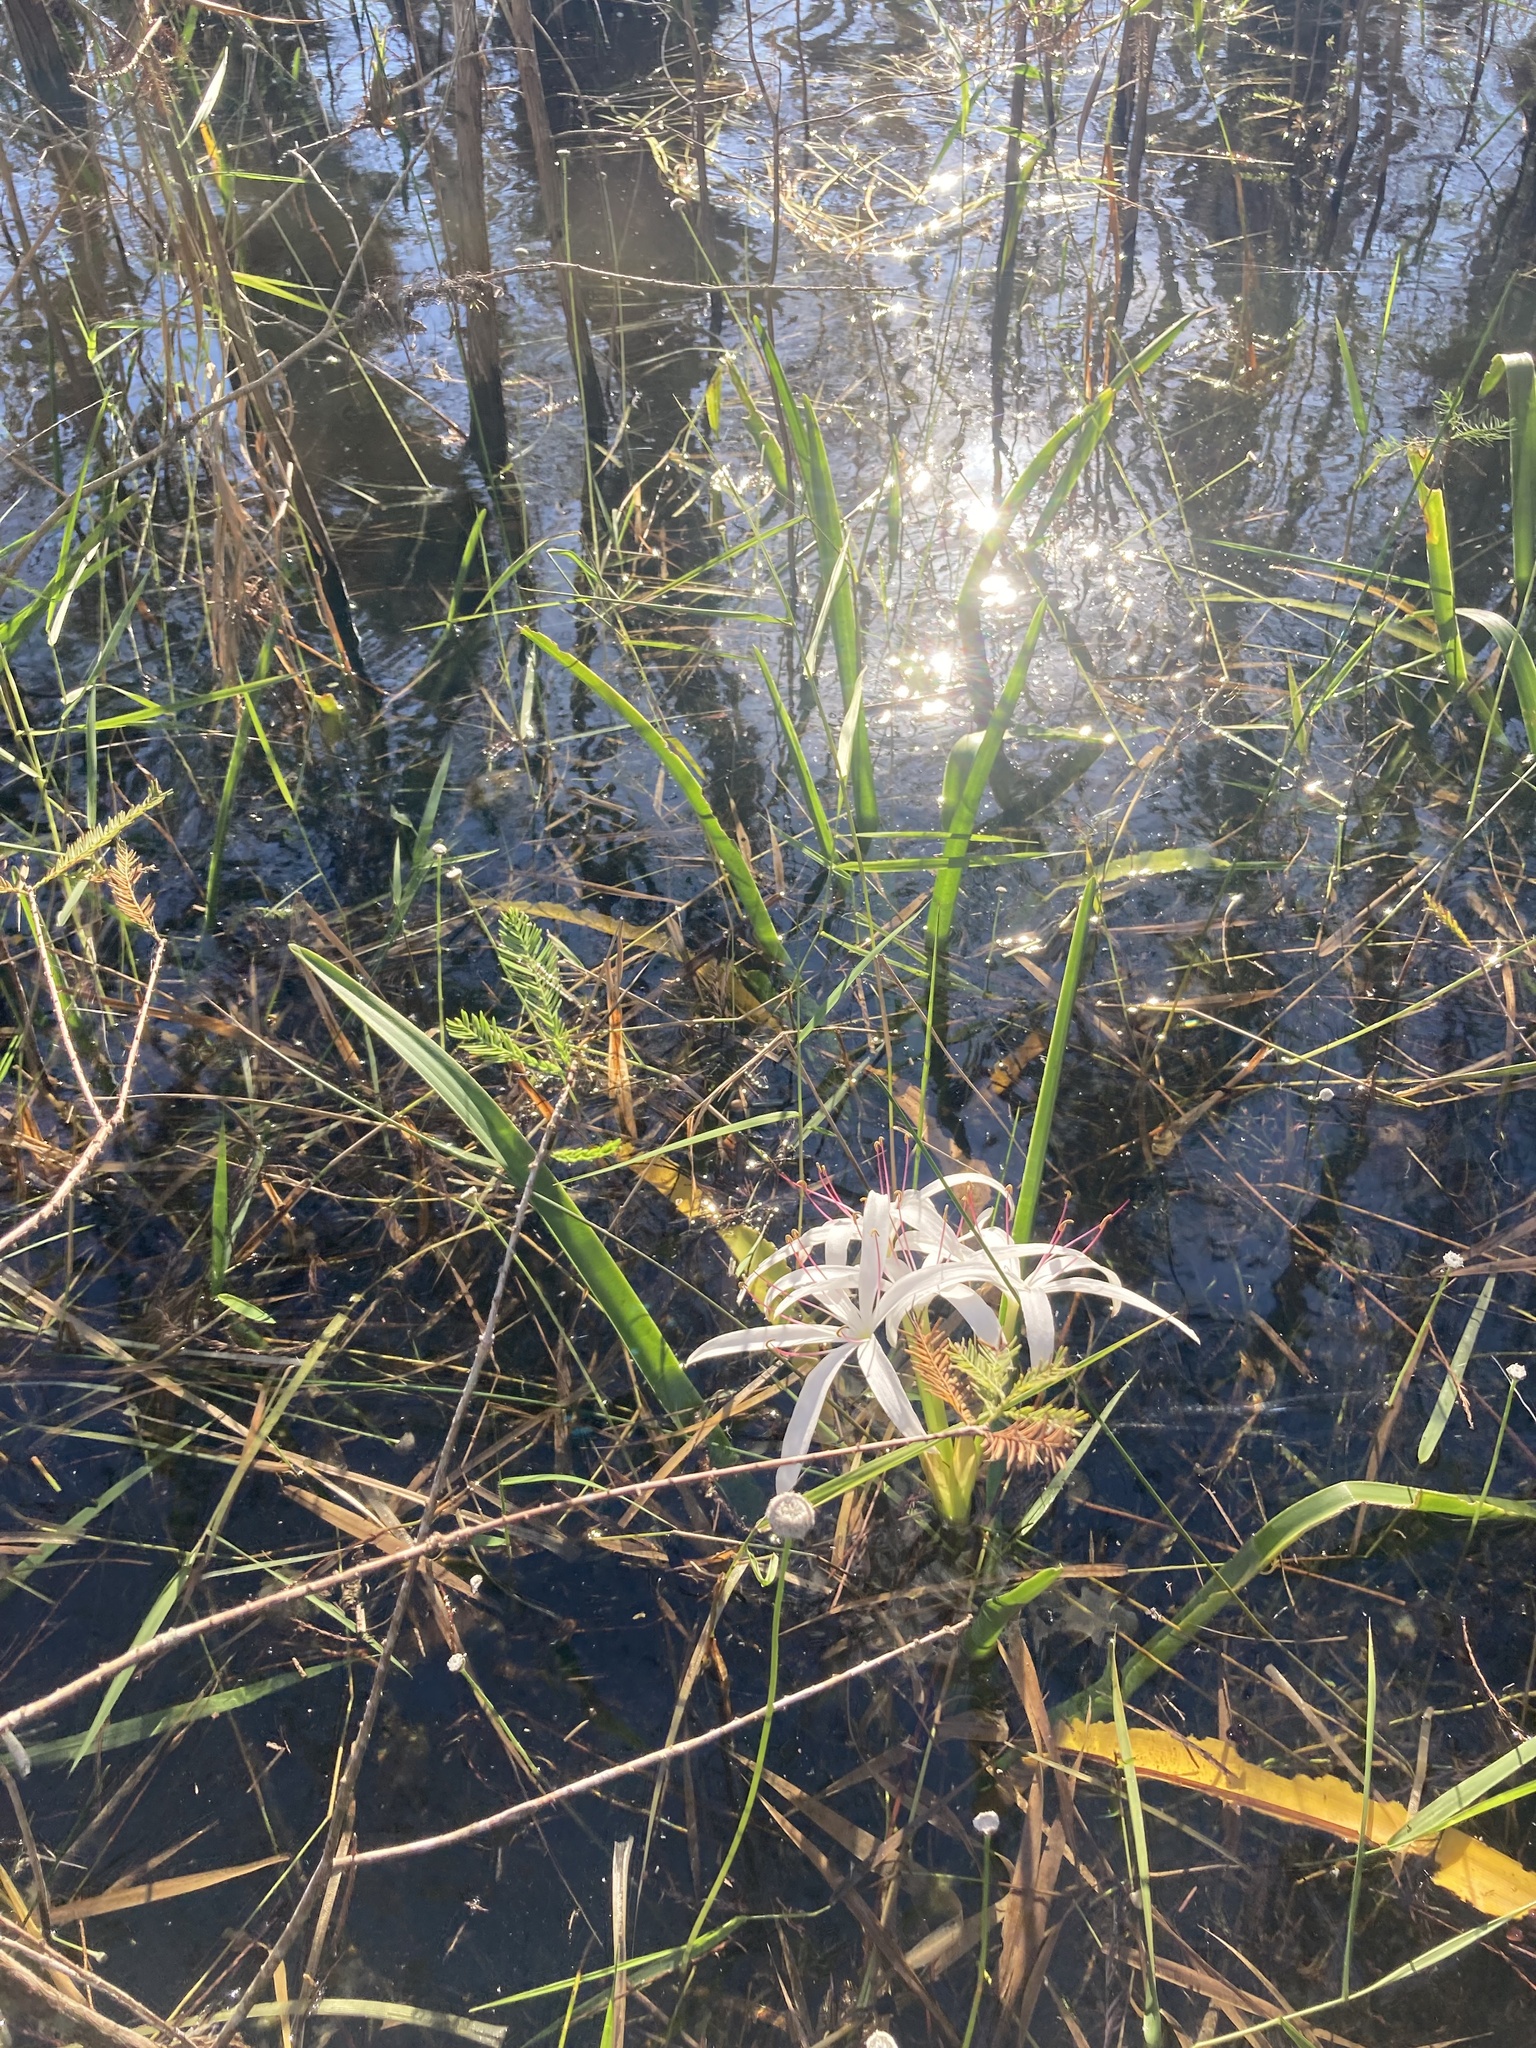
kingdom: Plantae
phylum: Tracheophyta
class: Liliopsida
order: Asparagales
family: Amaryllidaceae
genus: Crinum
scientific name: Crinum americanum
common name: Florida swamp-lily
